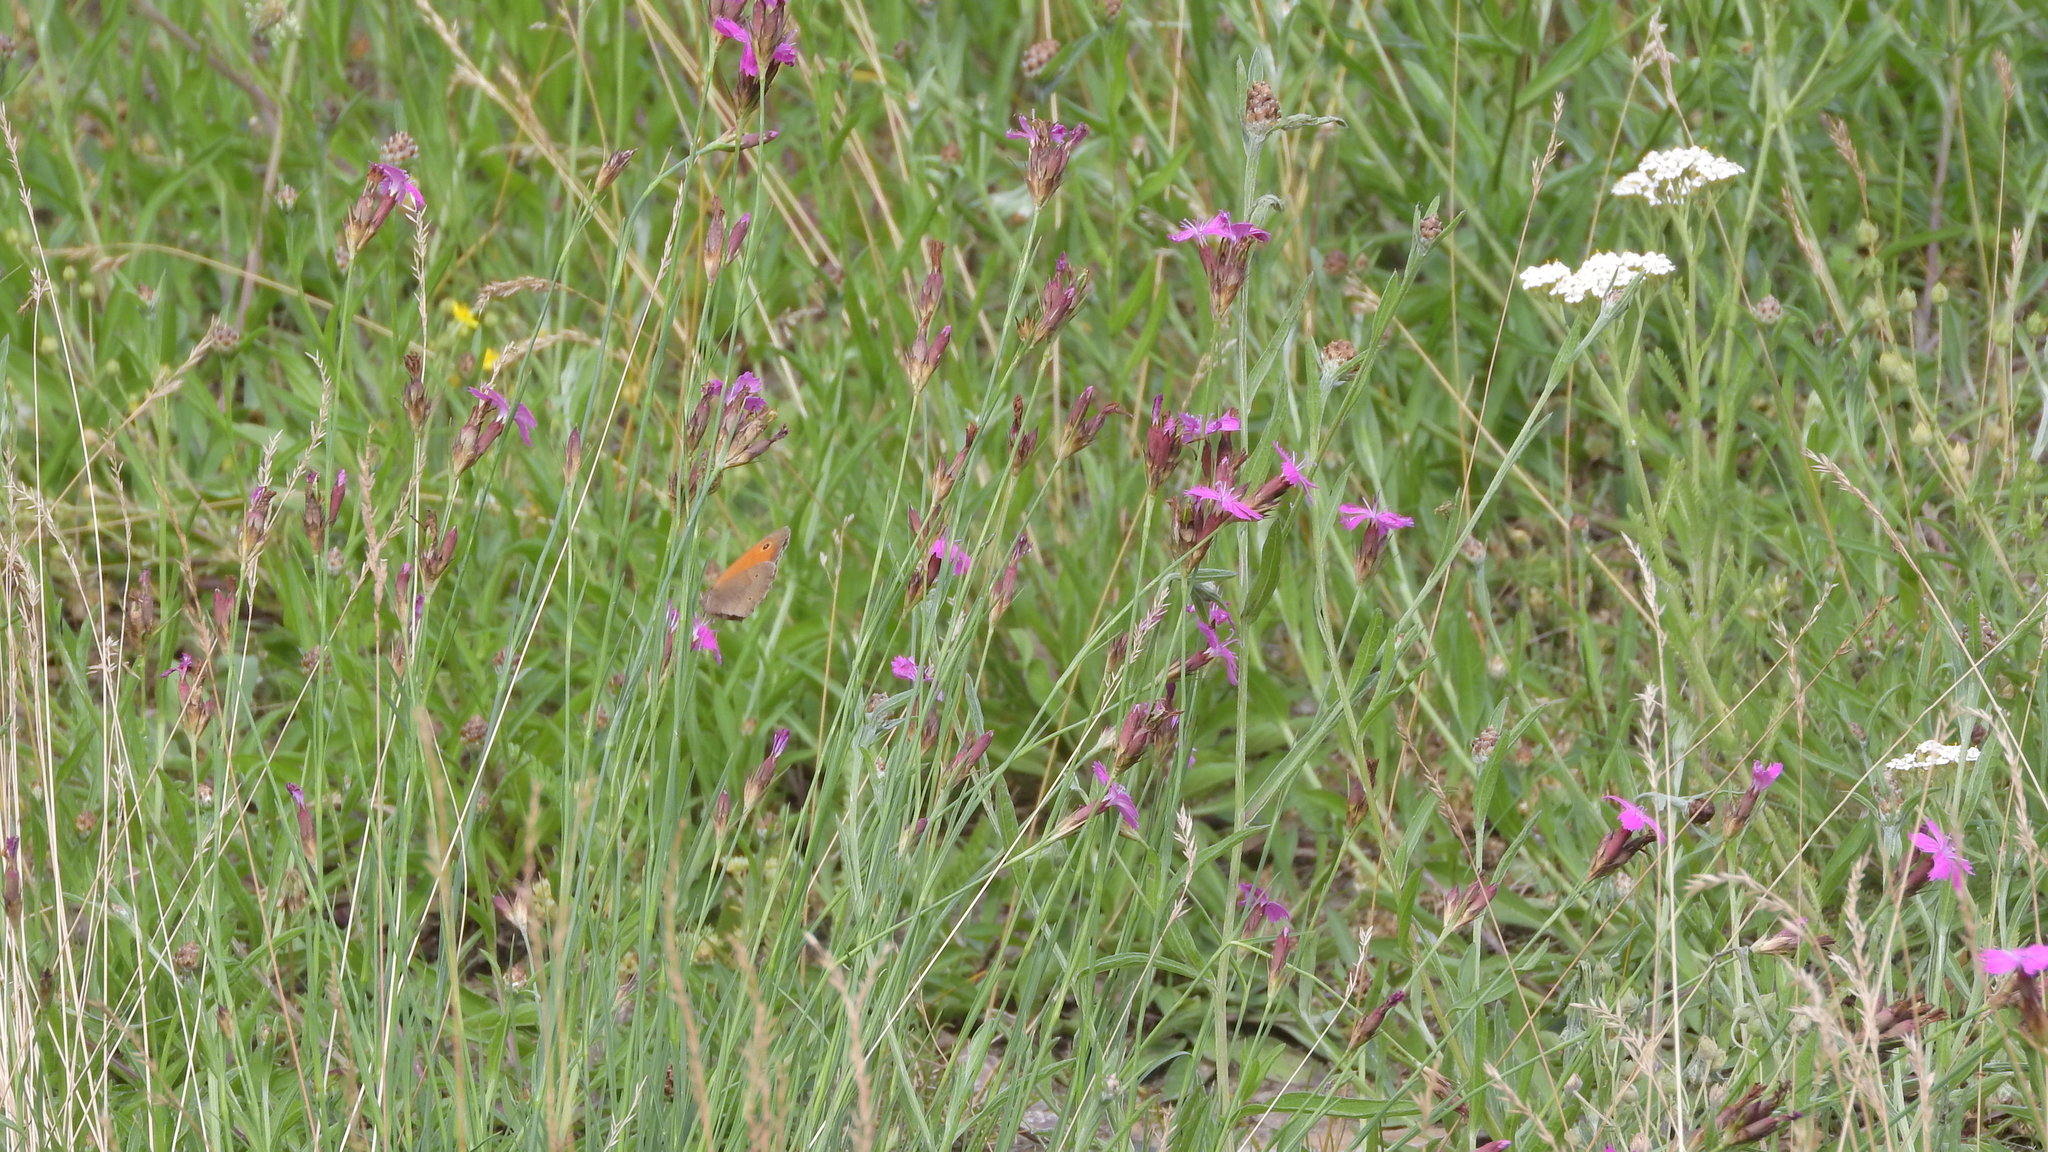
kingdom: Animalia
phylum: Arthropoda
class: Insecta
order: Lepidoptera
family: Nymphalidae
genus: Maniola
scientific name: Maniola jurtina
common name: Meadow brown
